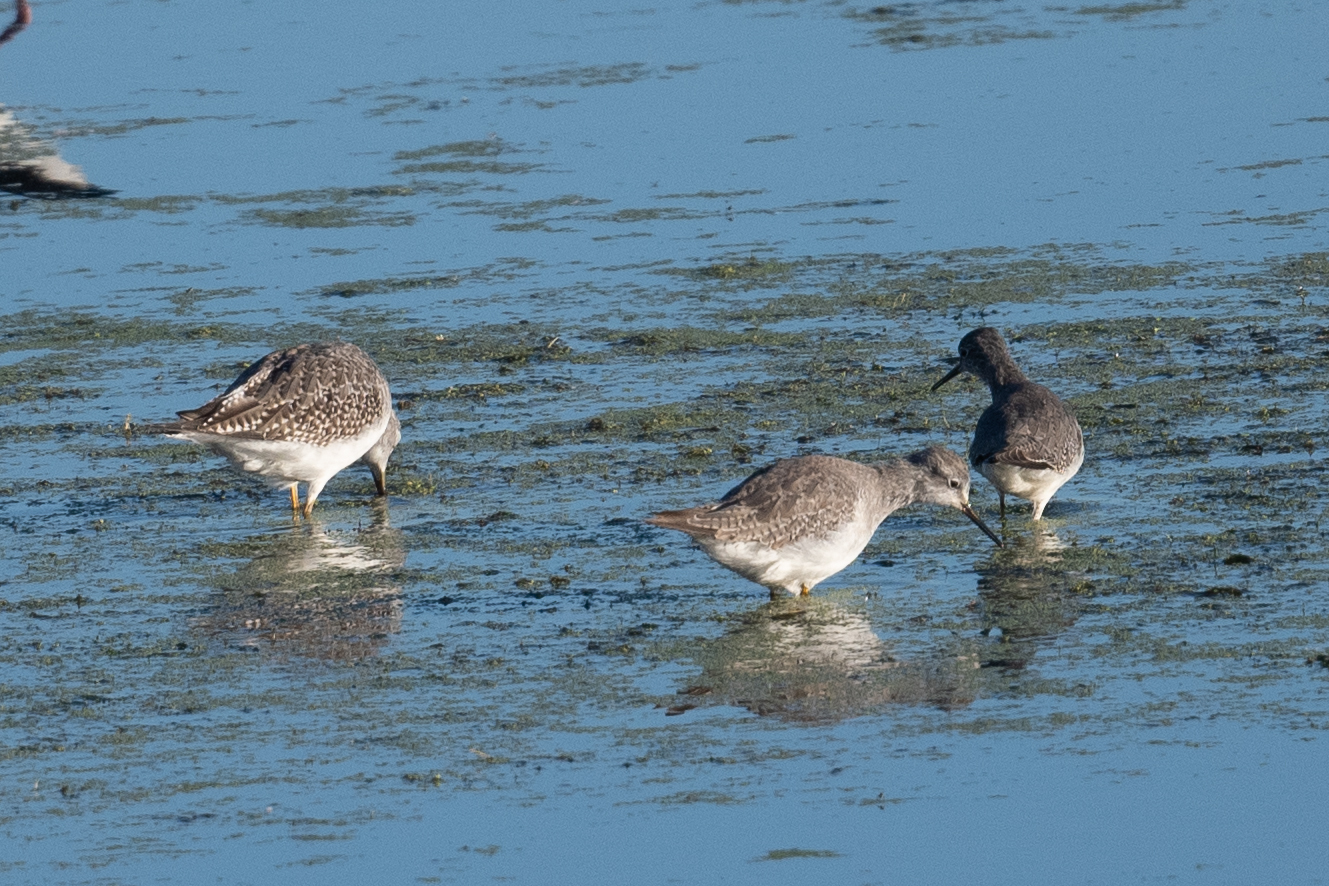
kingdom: Animalia
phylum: Chordata
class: Aves
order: Charadriiformes
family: Scolopacidae
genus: Tringa
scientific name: Tringa melanoleuca
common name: Greater yellowlegs
